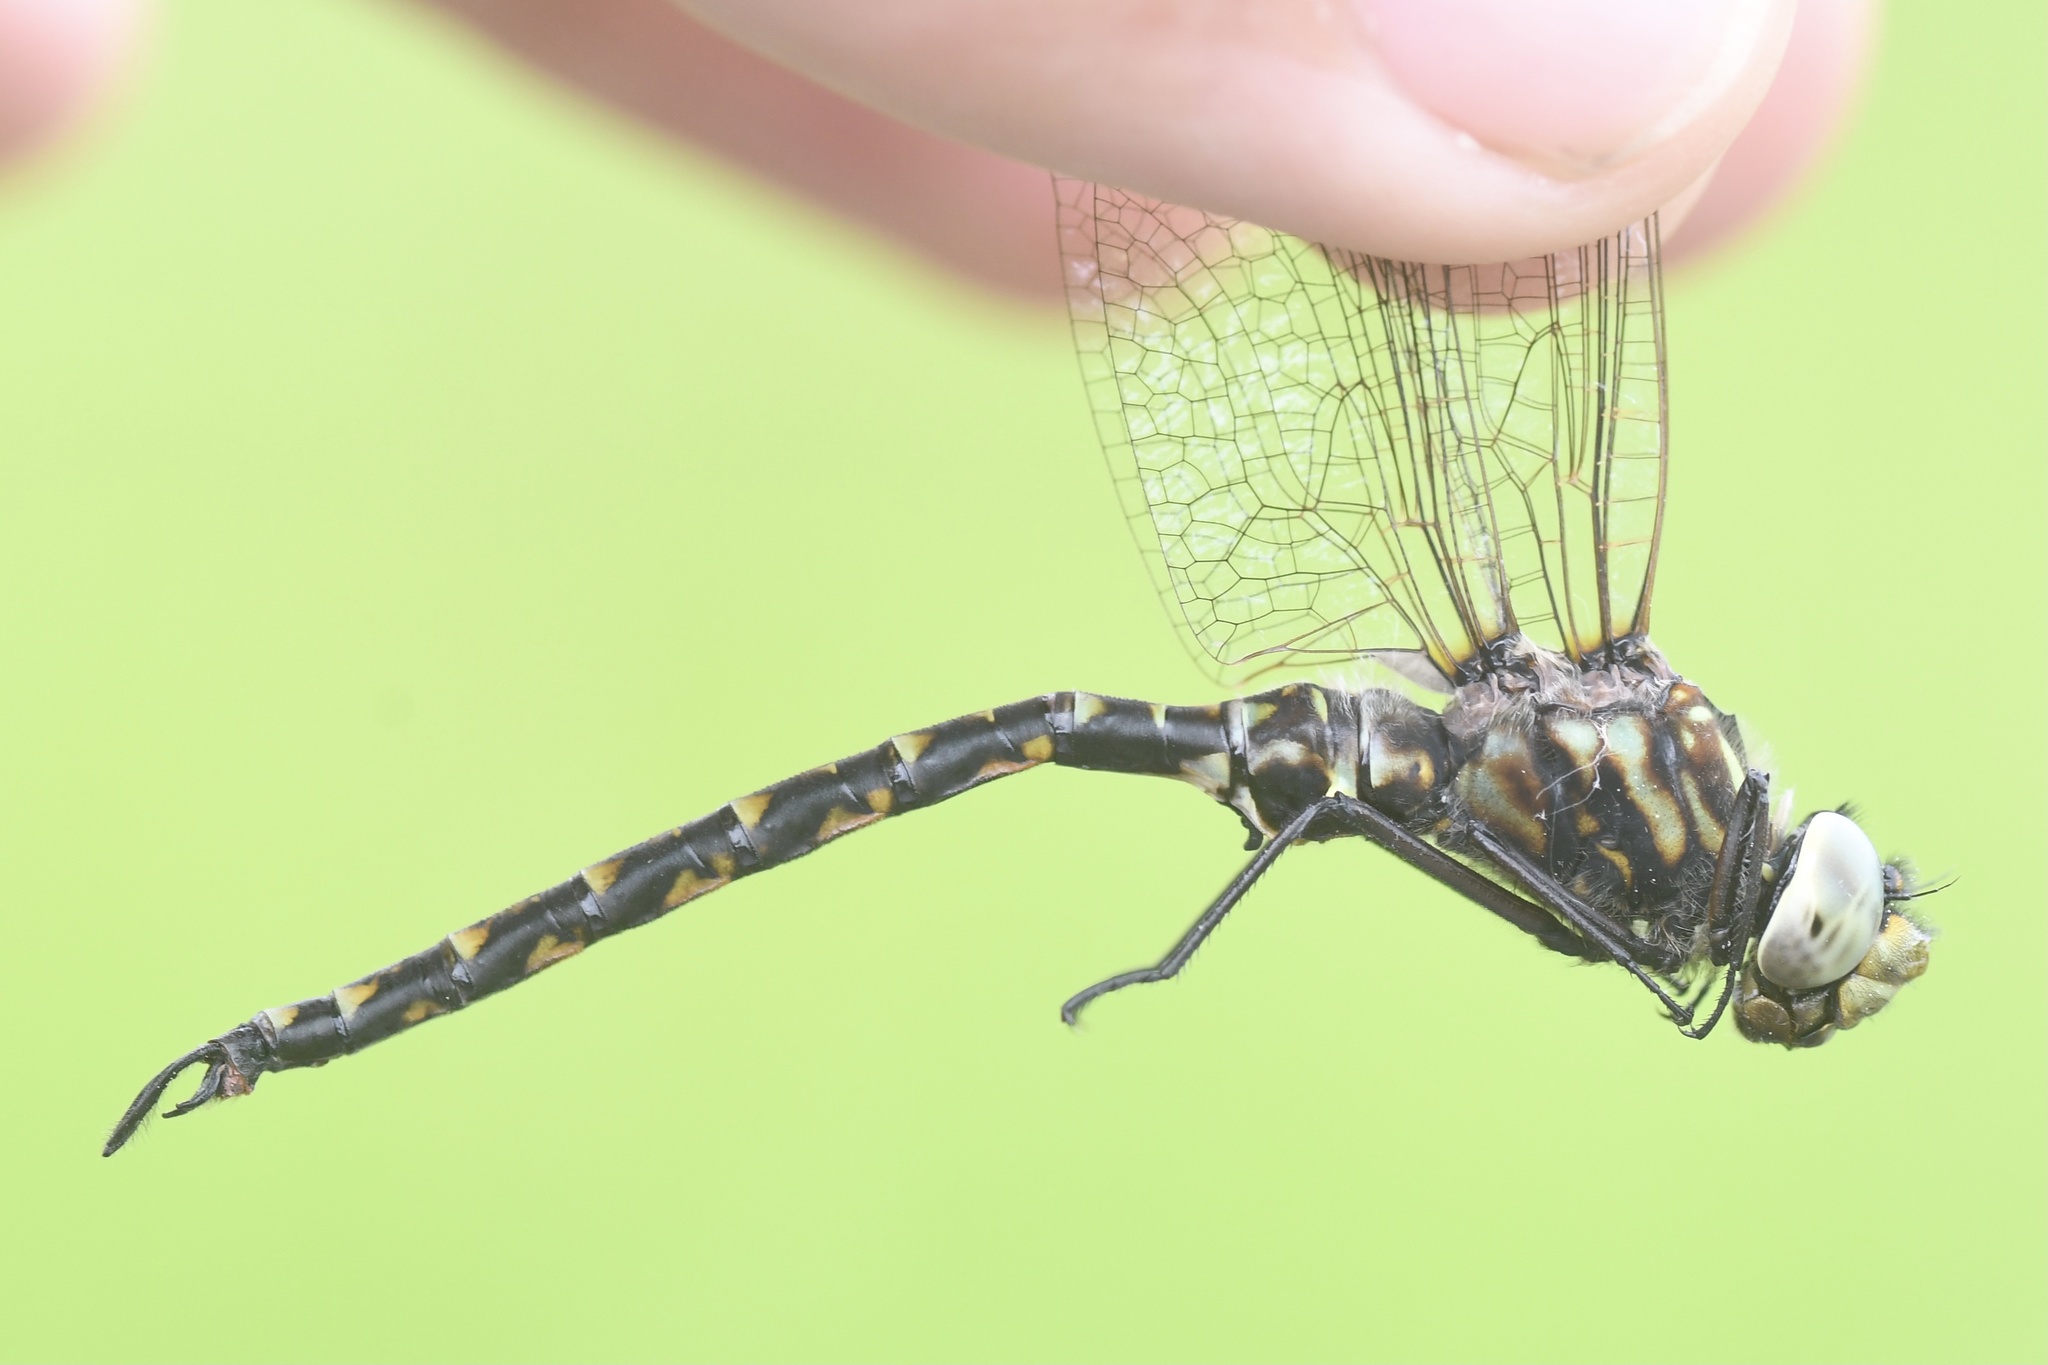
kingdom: Animalia
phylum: Arthropoda
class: Insecta
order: Odonata
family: Aeshnidae
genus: Gomphaeschna
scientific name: Gomphaeschna furcillata
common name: Harlequin darner
